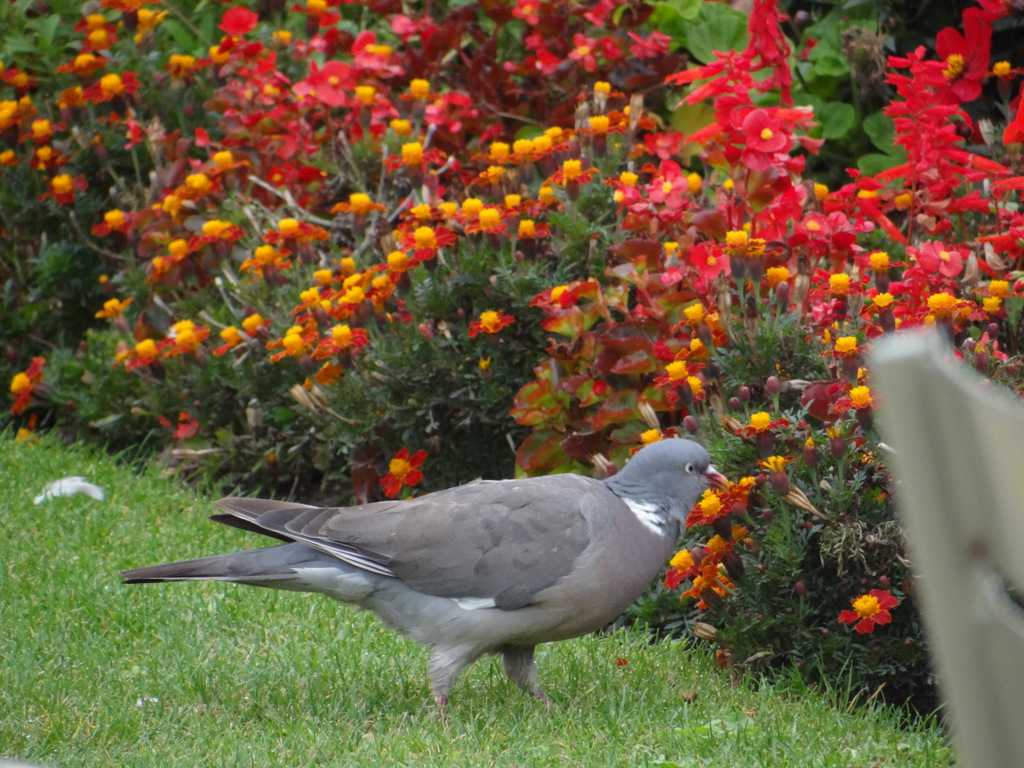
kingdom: Animalia
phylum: Chordata
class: Aves
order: Columbiformes
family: Columbidae
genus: Columba
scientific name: Columba palumbus
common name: Common wood pigeon
